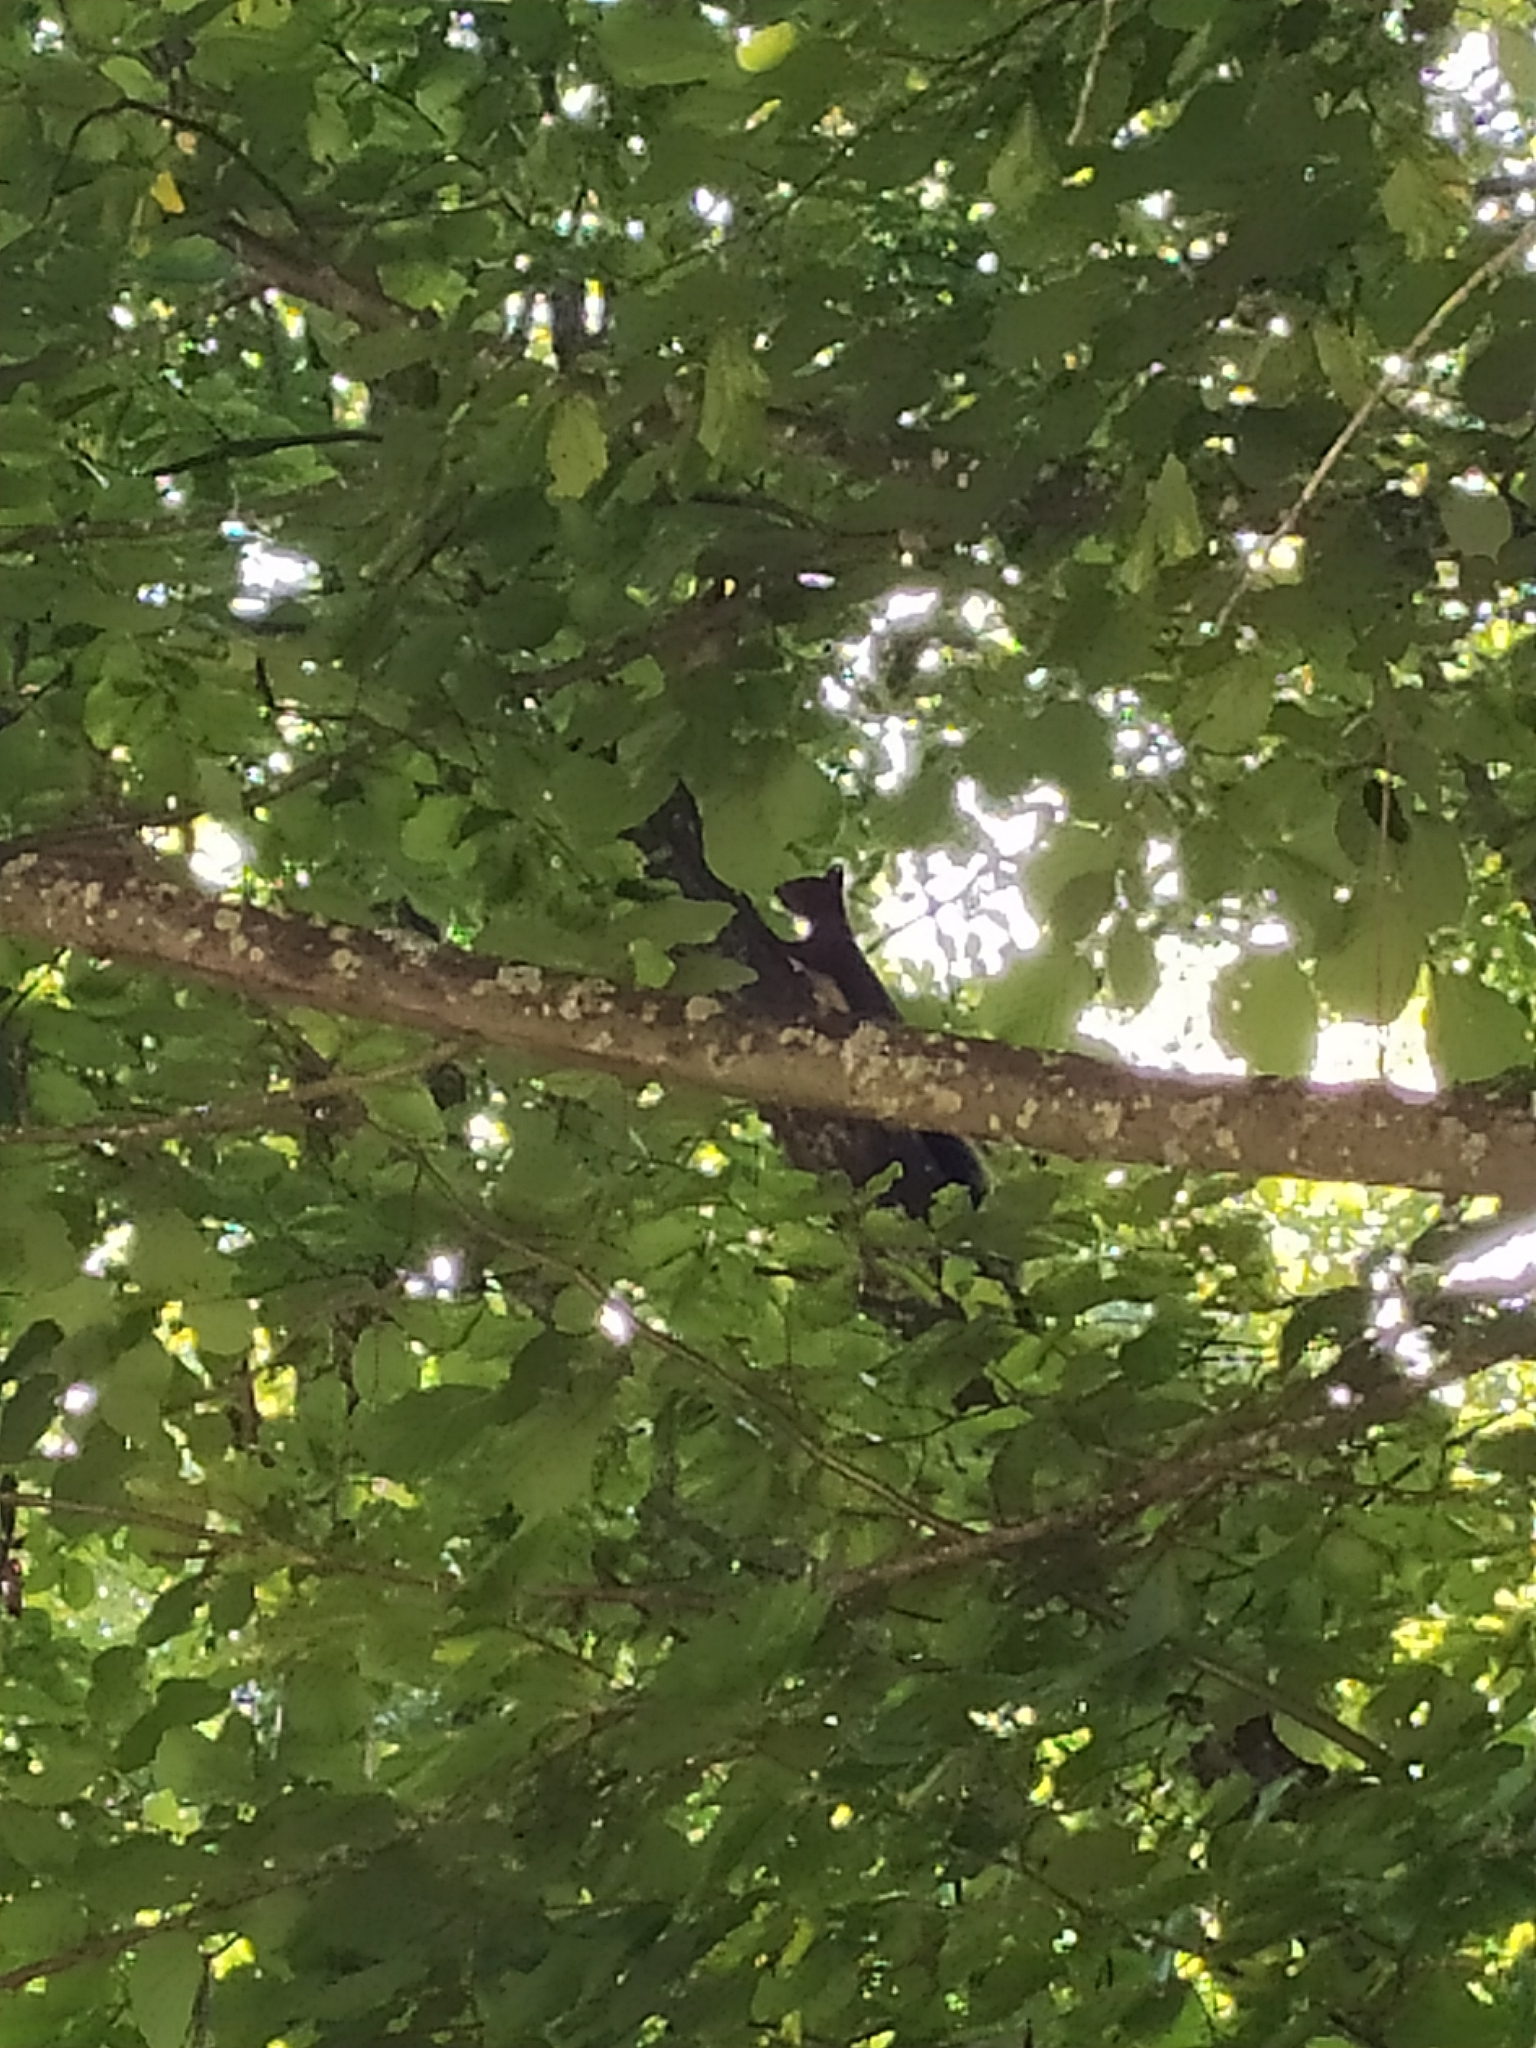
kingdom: Animalia
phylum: Chordata
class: Mammalia
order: Rodentia
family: Sciuridae
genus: Sciurus
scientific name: Sciurus vulgaris
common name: Eurasian red squirrel
